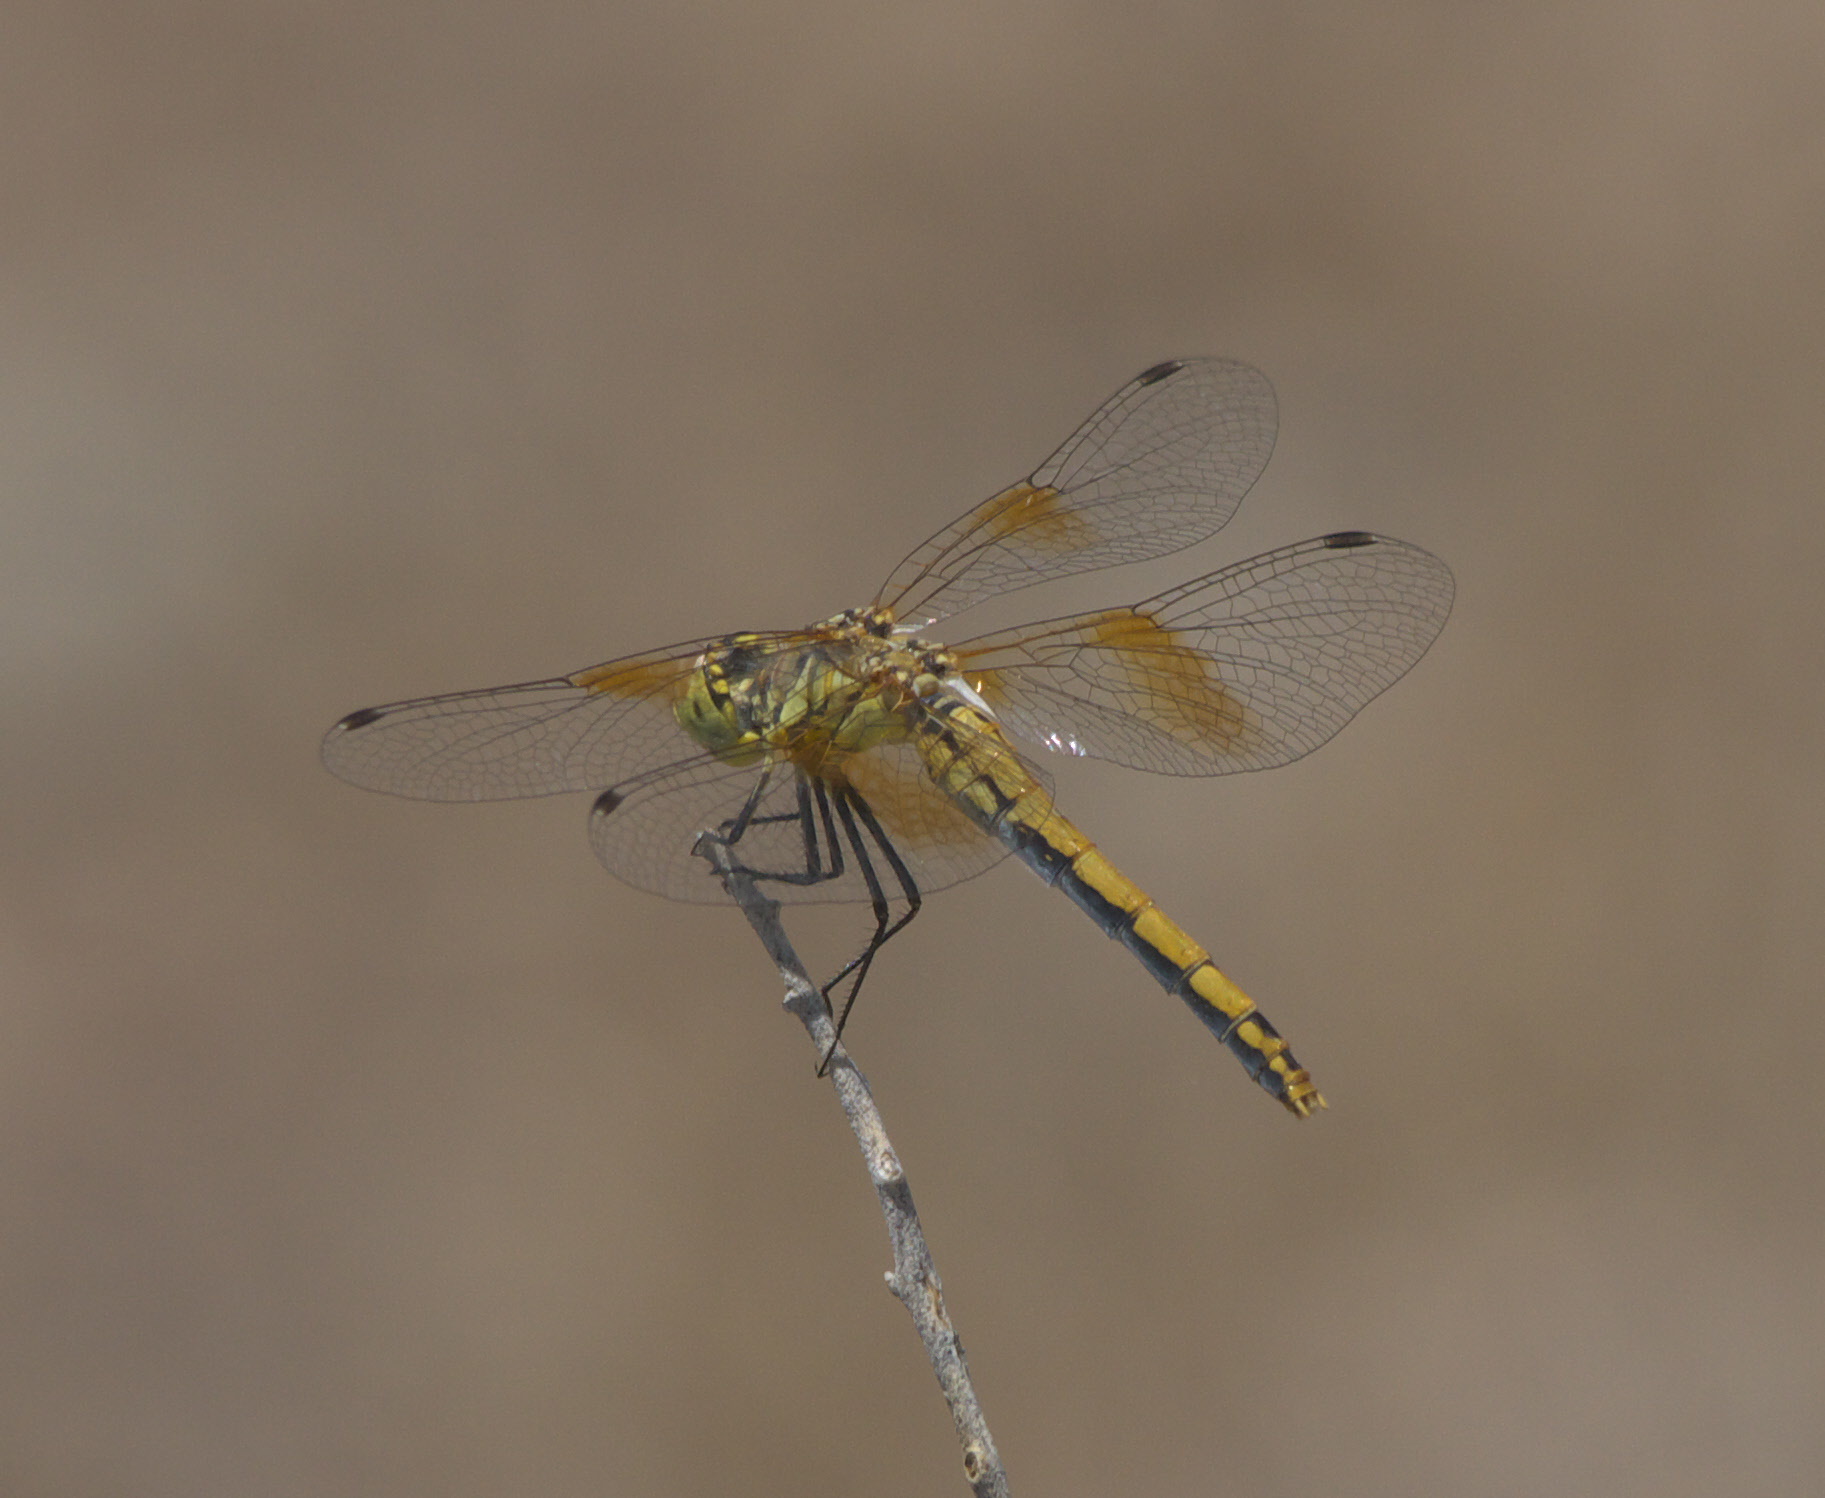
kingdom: Animalia
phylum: Arthropoda
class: Insecta
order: Odonata
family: Libellulidae
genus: Sympetrum
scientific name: Sympetrum semicinctum
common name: Band-winged meadowhawk
